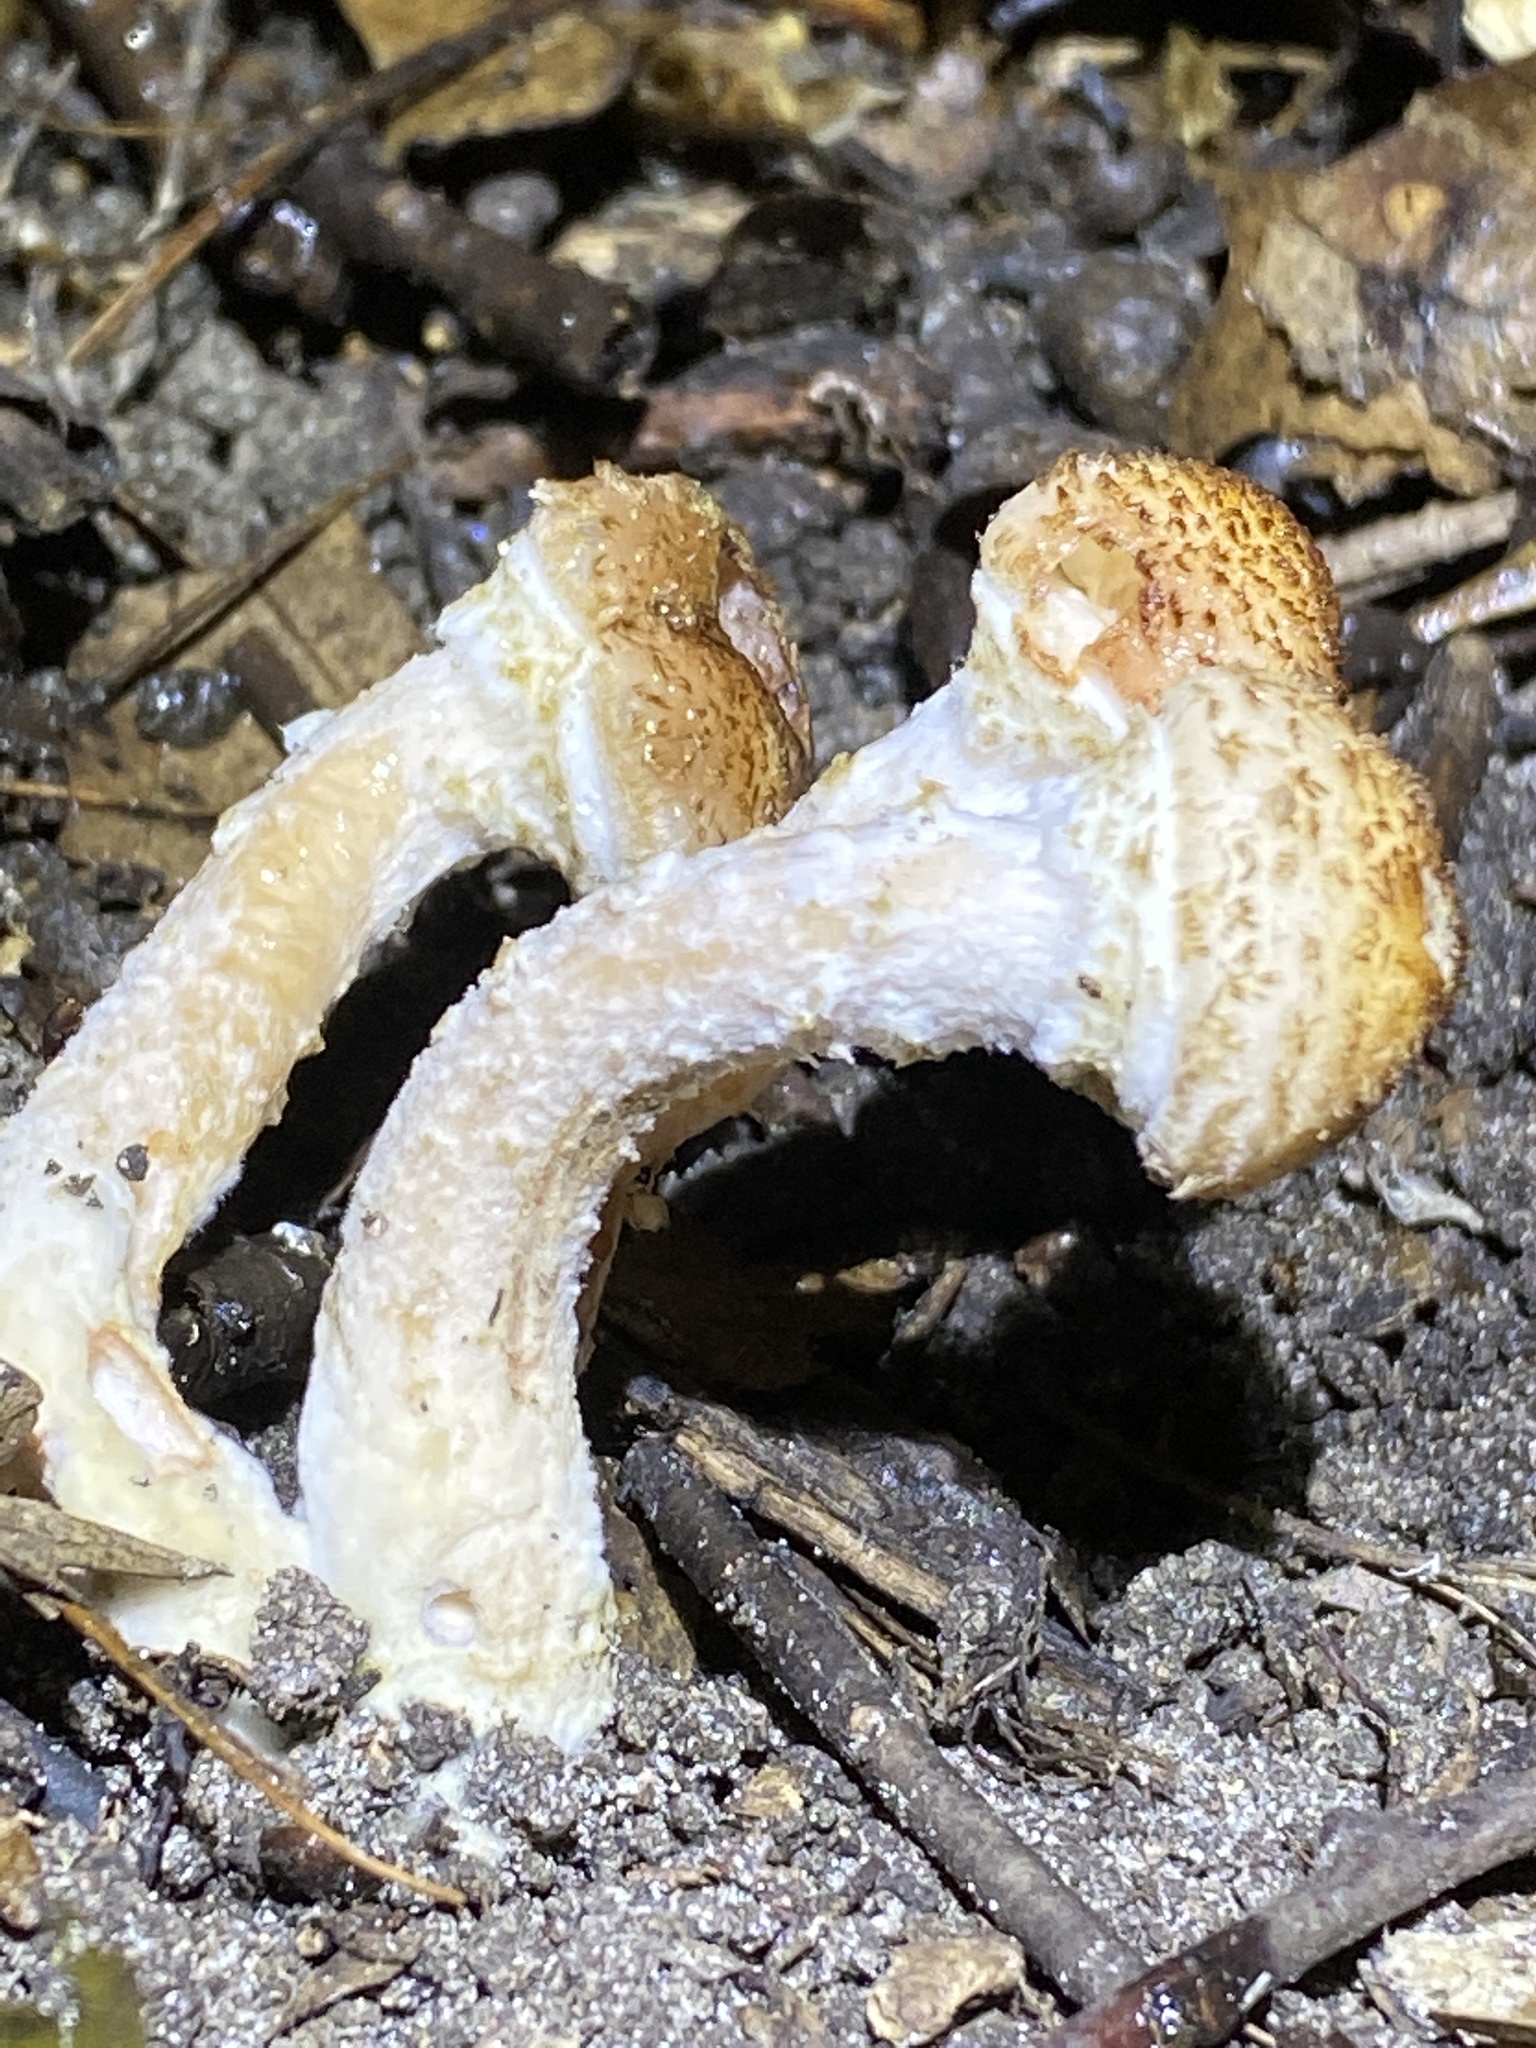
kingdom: Fungi
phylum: Basidiomycota
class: Agaricomycetes
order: Agaricales
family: Physalacriaceae
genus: Armillaria
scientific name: Armillaria mellea
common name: Honey fungus
